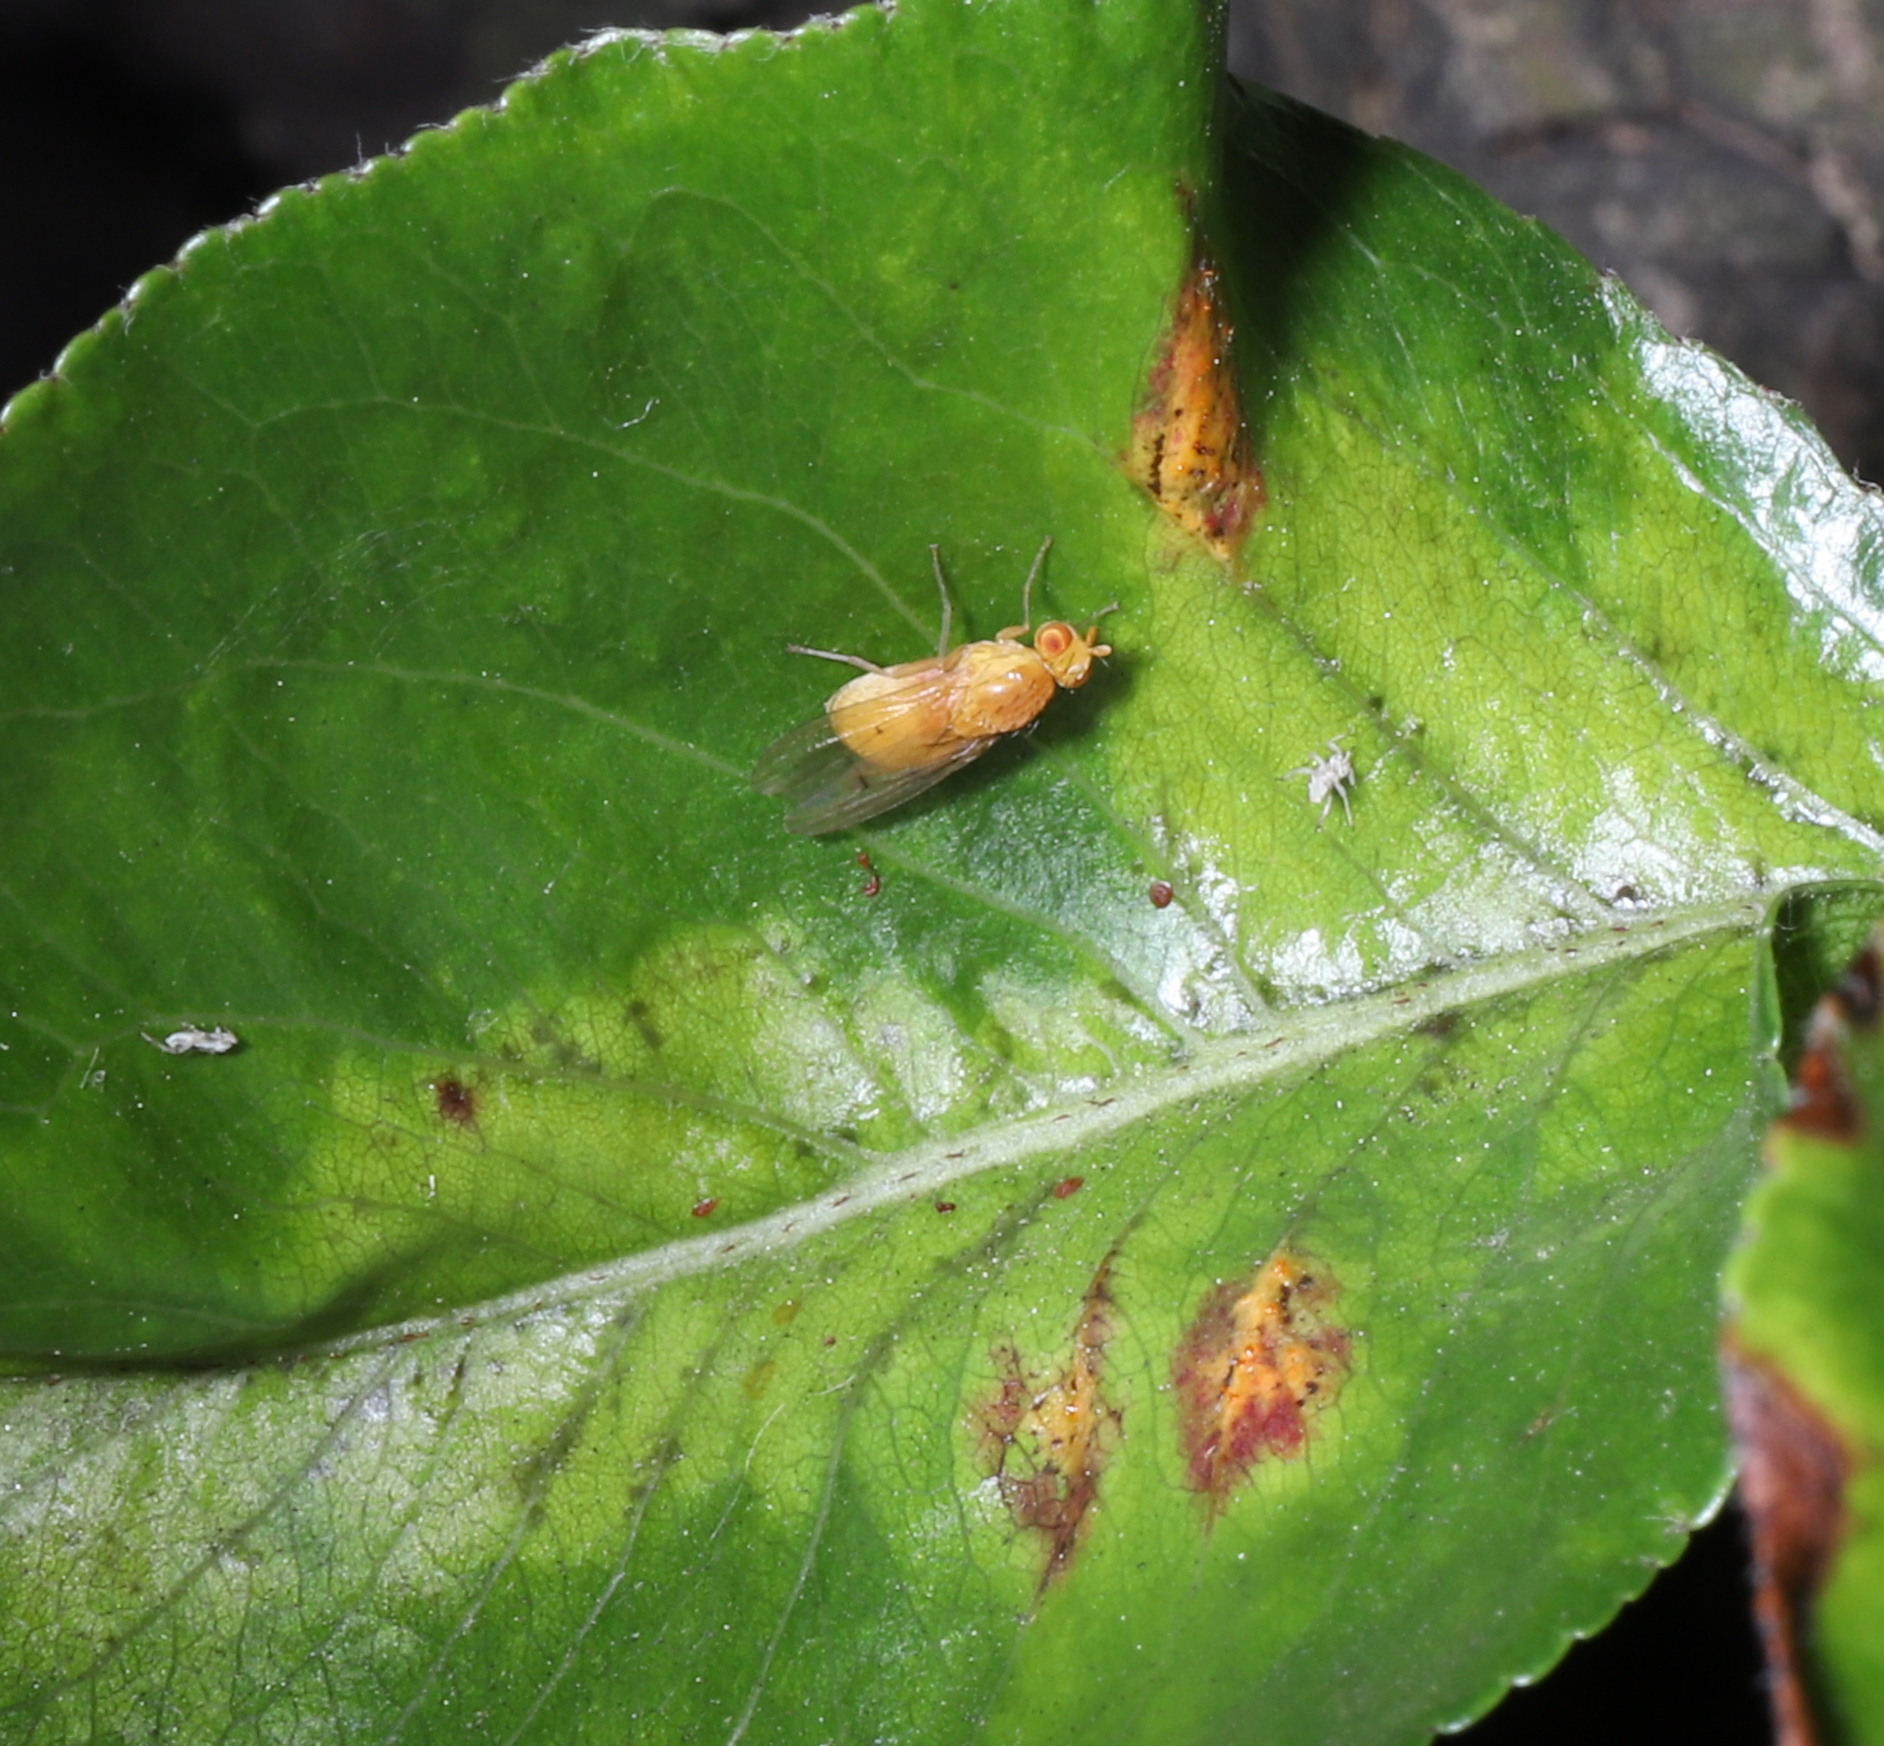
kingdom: Fungi
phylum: Basidiomycota
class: Pucciniomycetes
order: Pucciniales
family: Gymnosporangiaceae
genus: Gymnosporangium
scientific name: Gymnosporangium sabinae
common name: Pear trellis rust fungus
